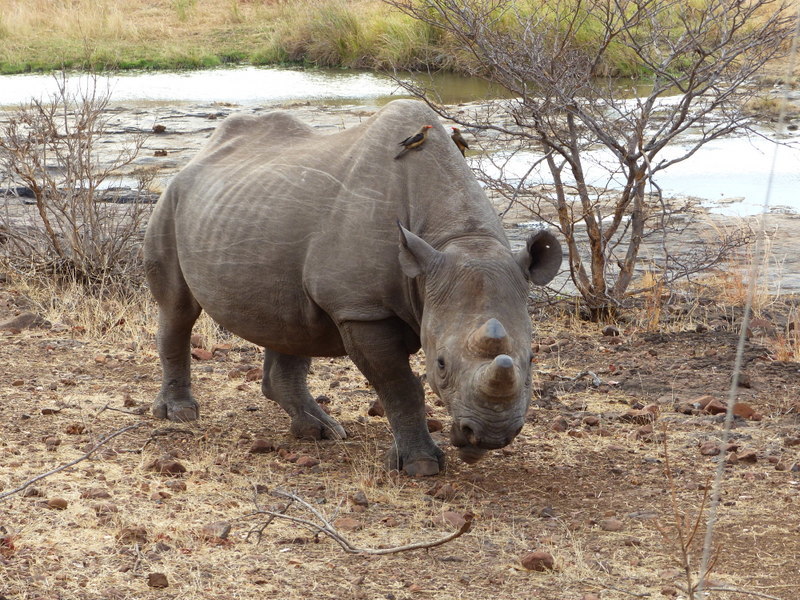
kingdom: Animalia
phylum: Chordata
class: Mammalia
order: Perissodactyla
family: Rhinocerotidae
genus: Diceros
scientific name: Diceros bicornis
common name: Black rhinoceros
